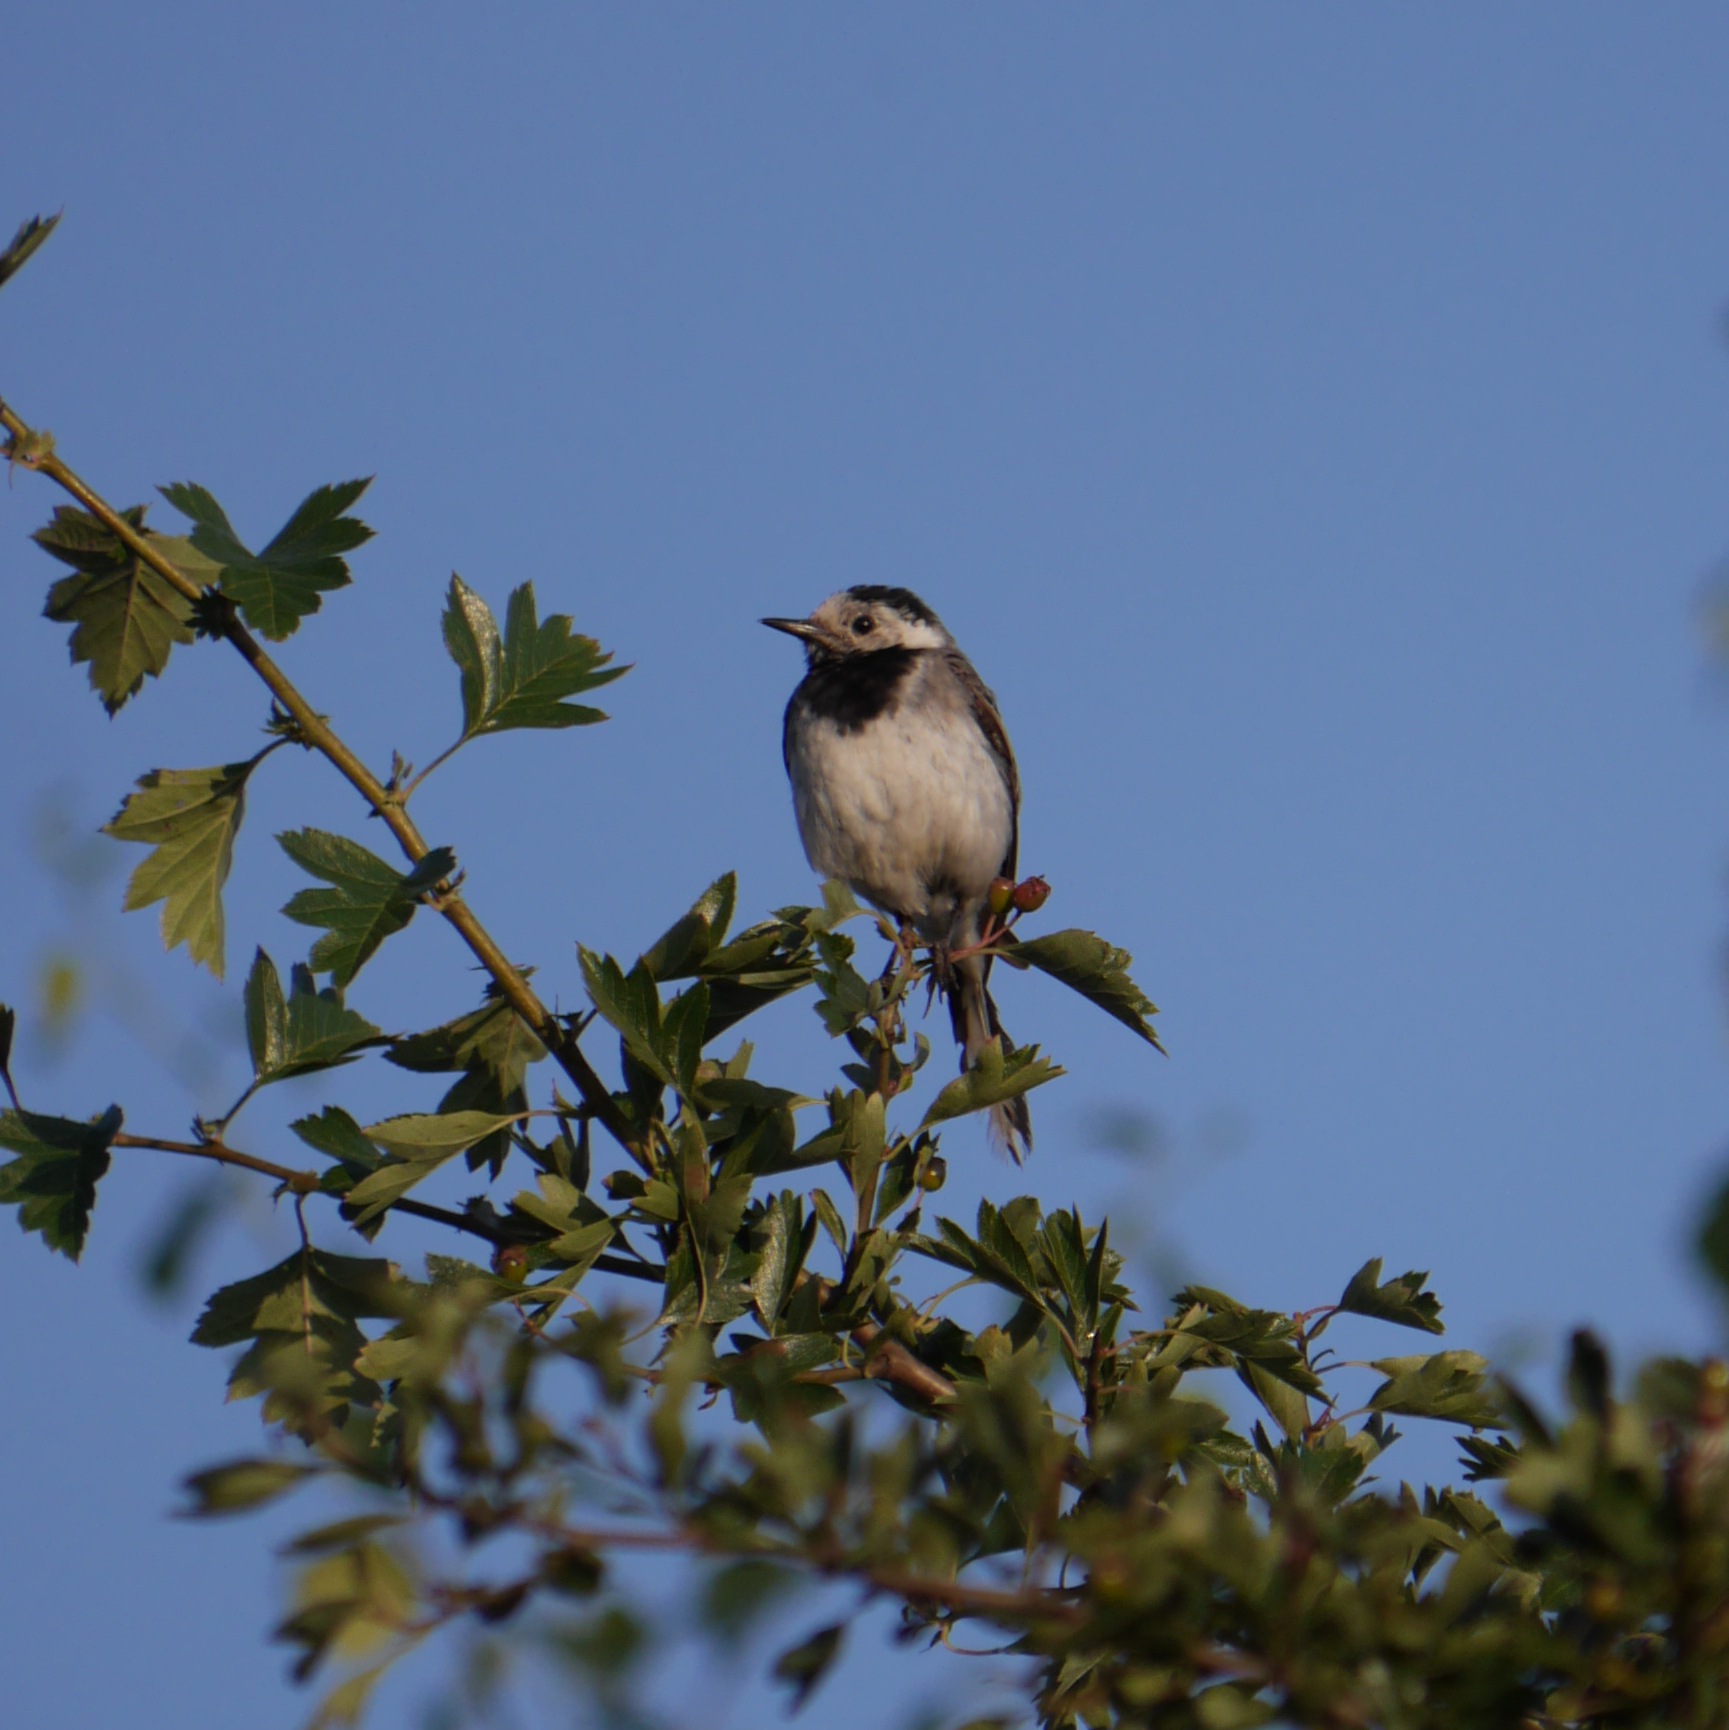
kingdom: Animalia
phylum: Chordata
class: Aves
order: Passeriformes
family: Motacillidae
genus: Motacilla
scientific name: Motacilla alba
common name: White wagtail
